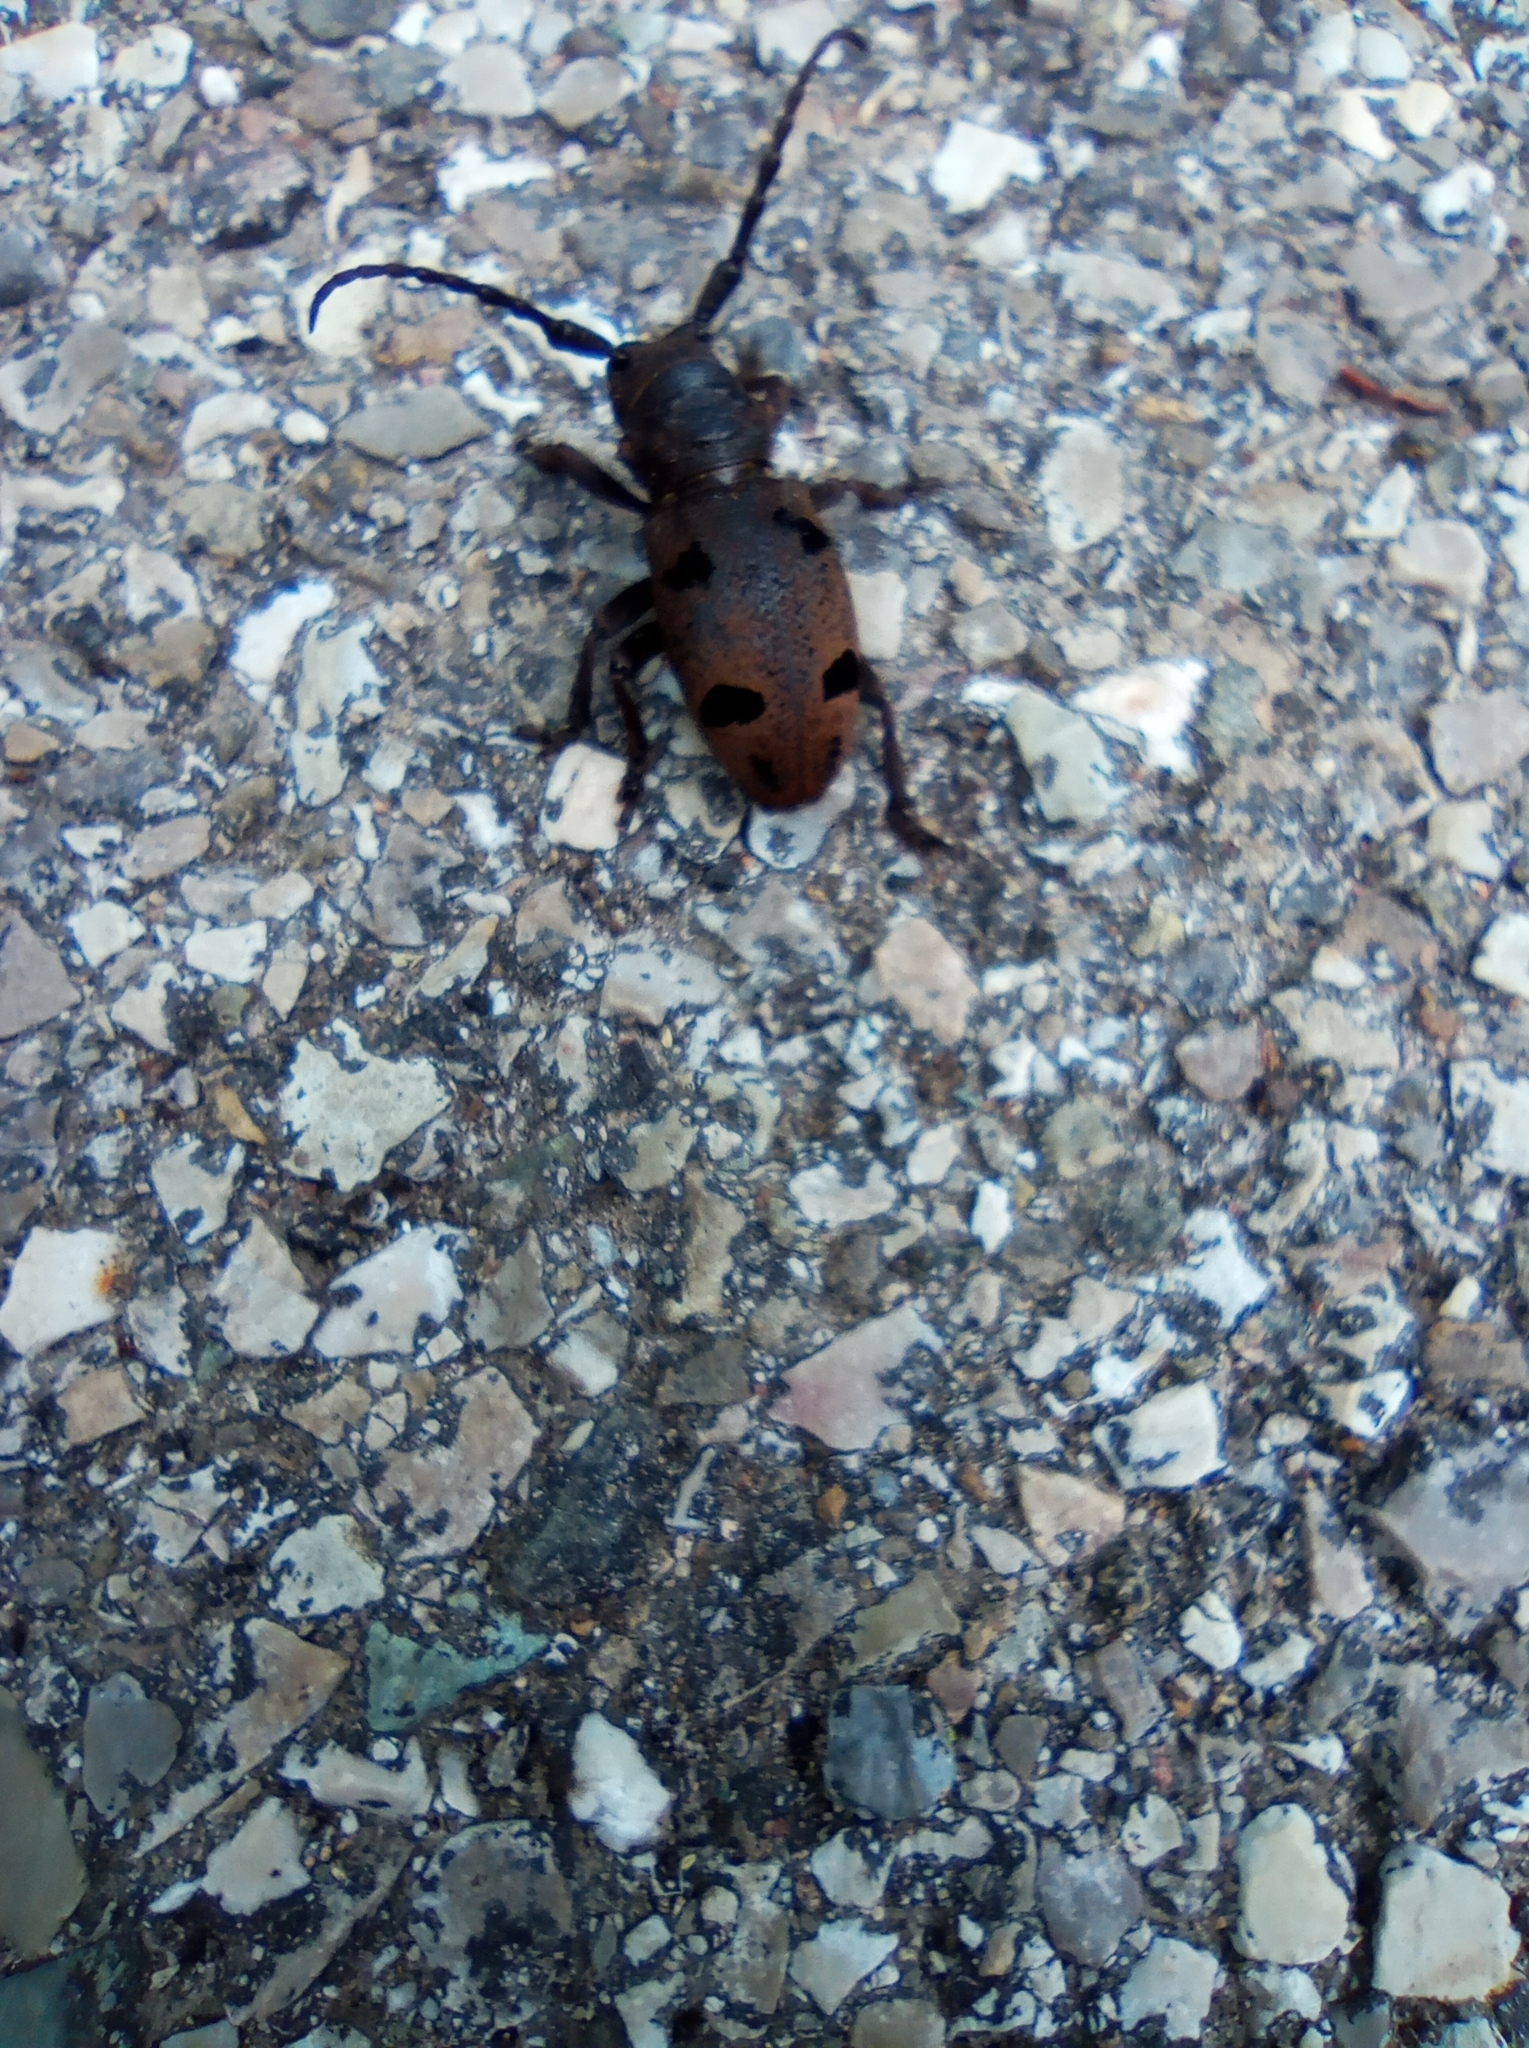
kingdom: Animalia
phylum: Arthropoda
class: Insecta
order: Coleoptera
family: Cerambycidae
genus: Herophila
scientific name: Herophila tristis
